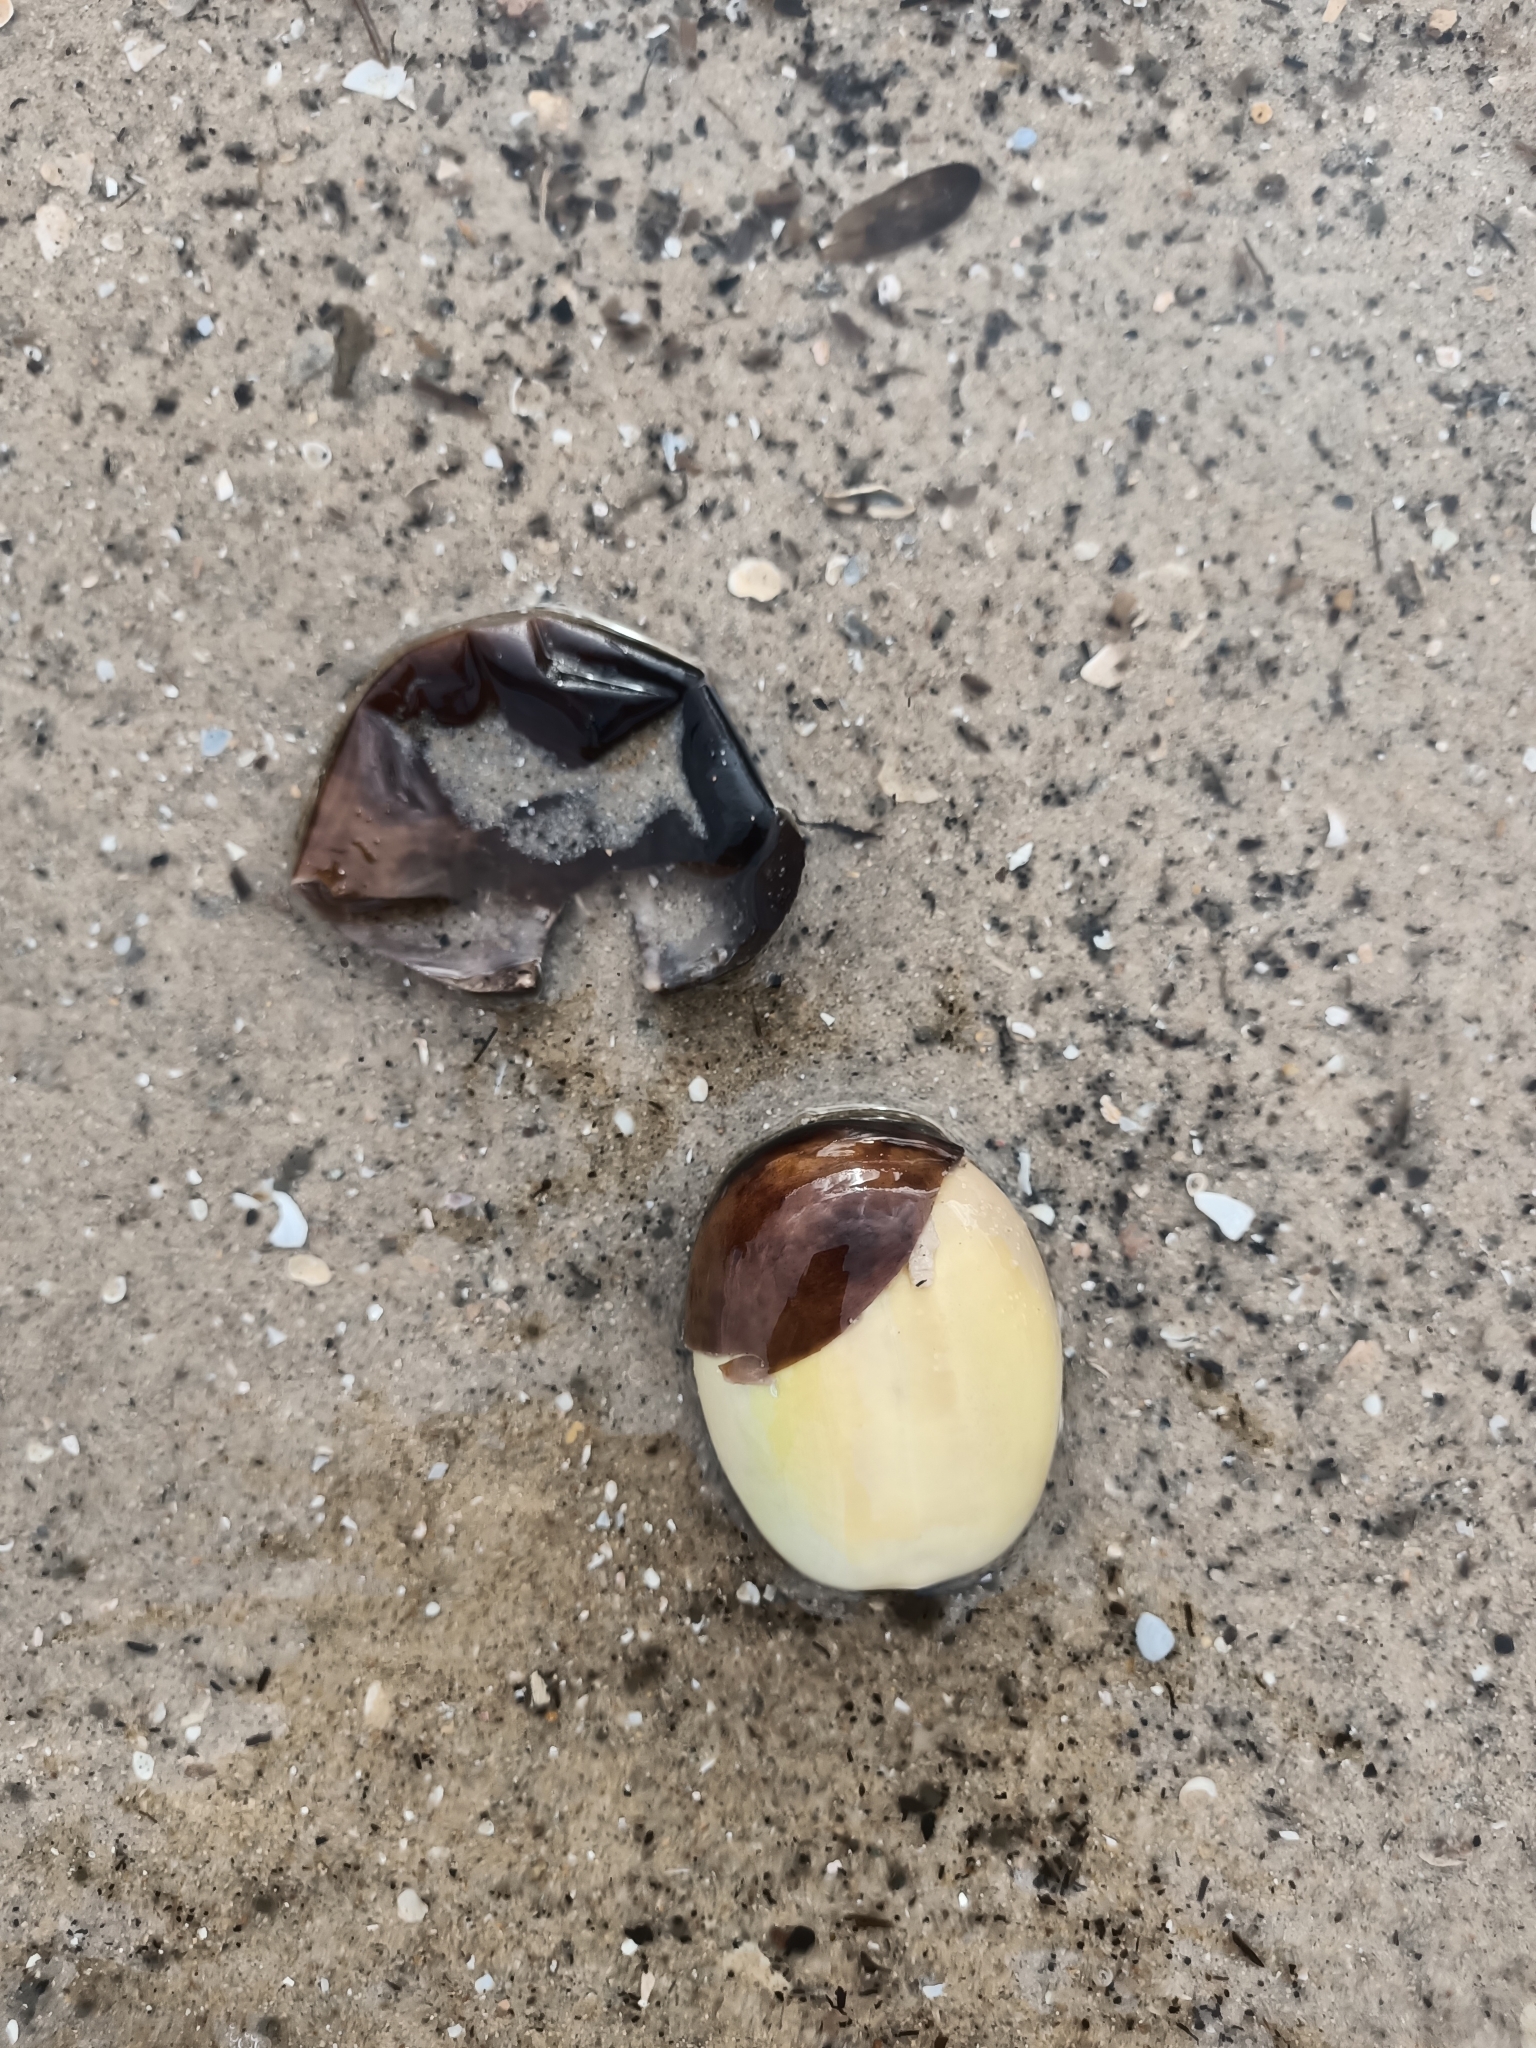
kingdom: Plantae
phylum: Tracheophyta
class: Magnoliopsida
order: Fabales
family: Fabaceae
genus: Castanospermum
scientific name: Castanospermum australe
